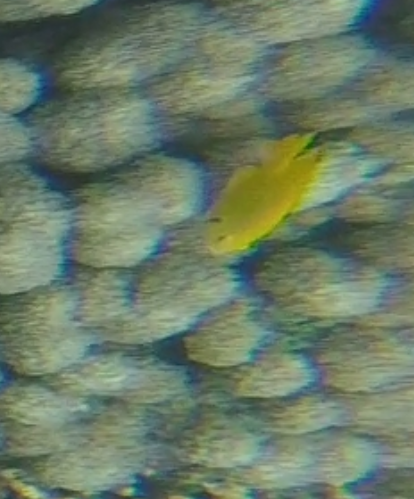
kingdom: Animalia
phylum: Chordata
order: Perciformes
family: Pomacentridae
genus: Pomacentrus
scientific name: Pomacentrus sulfureus
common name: Sulfur damsel
